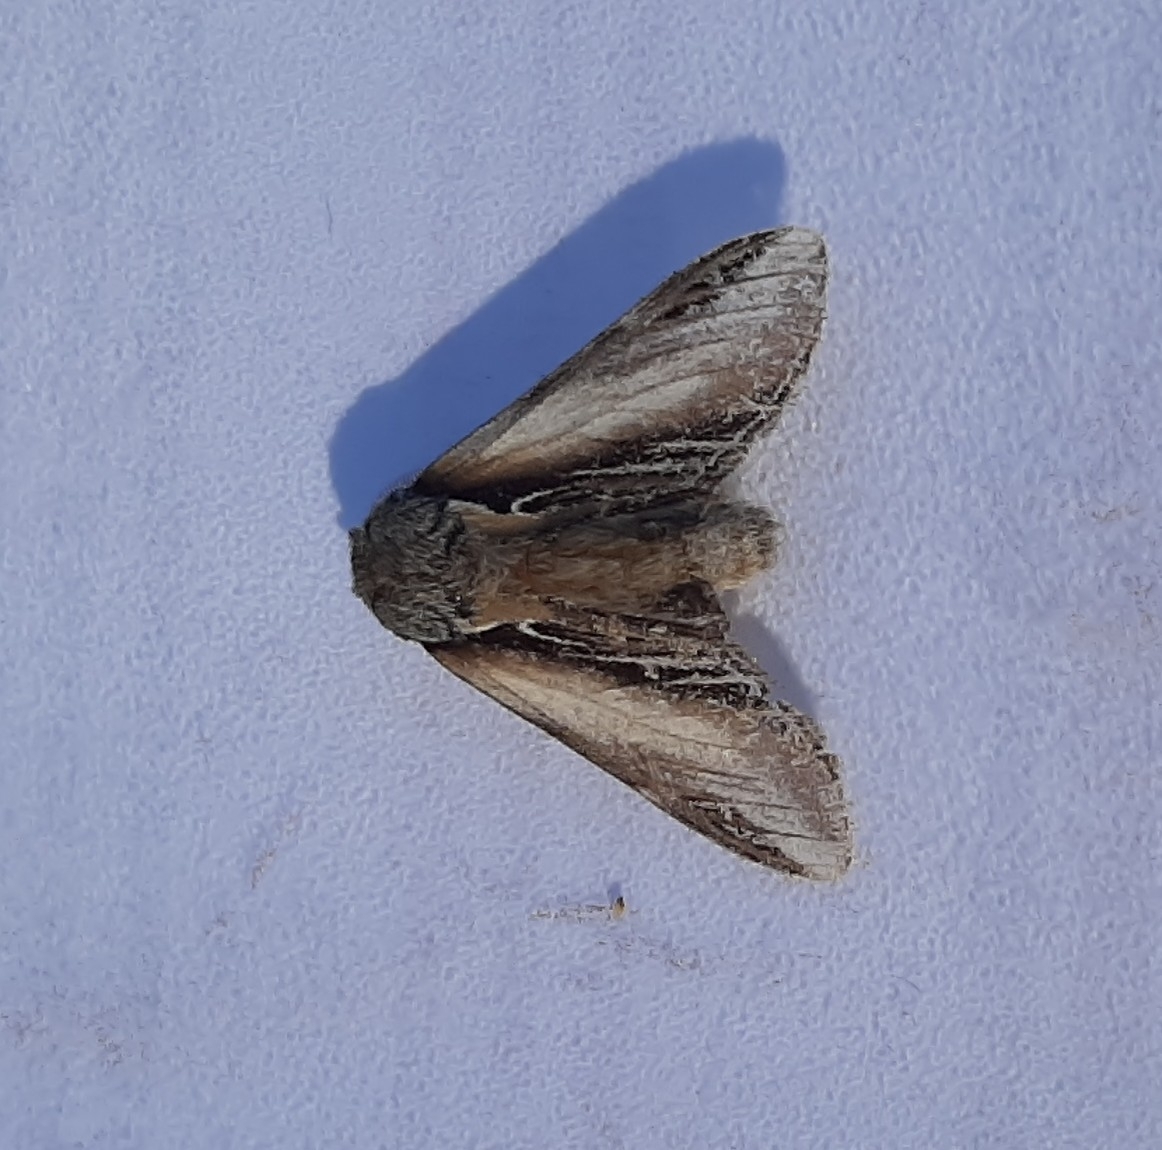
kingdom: Animalia
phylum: Arthropoda
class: Insecta
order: Lepidoptera
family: Notodontidae
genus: Pheosia
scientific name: Pheosia tremula
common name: Swallow prominent
